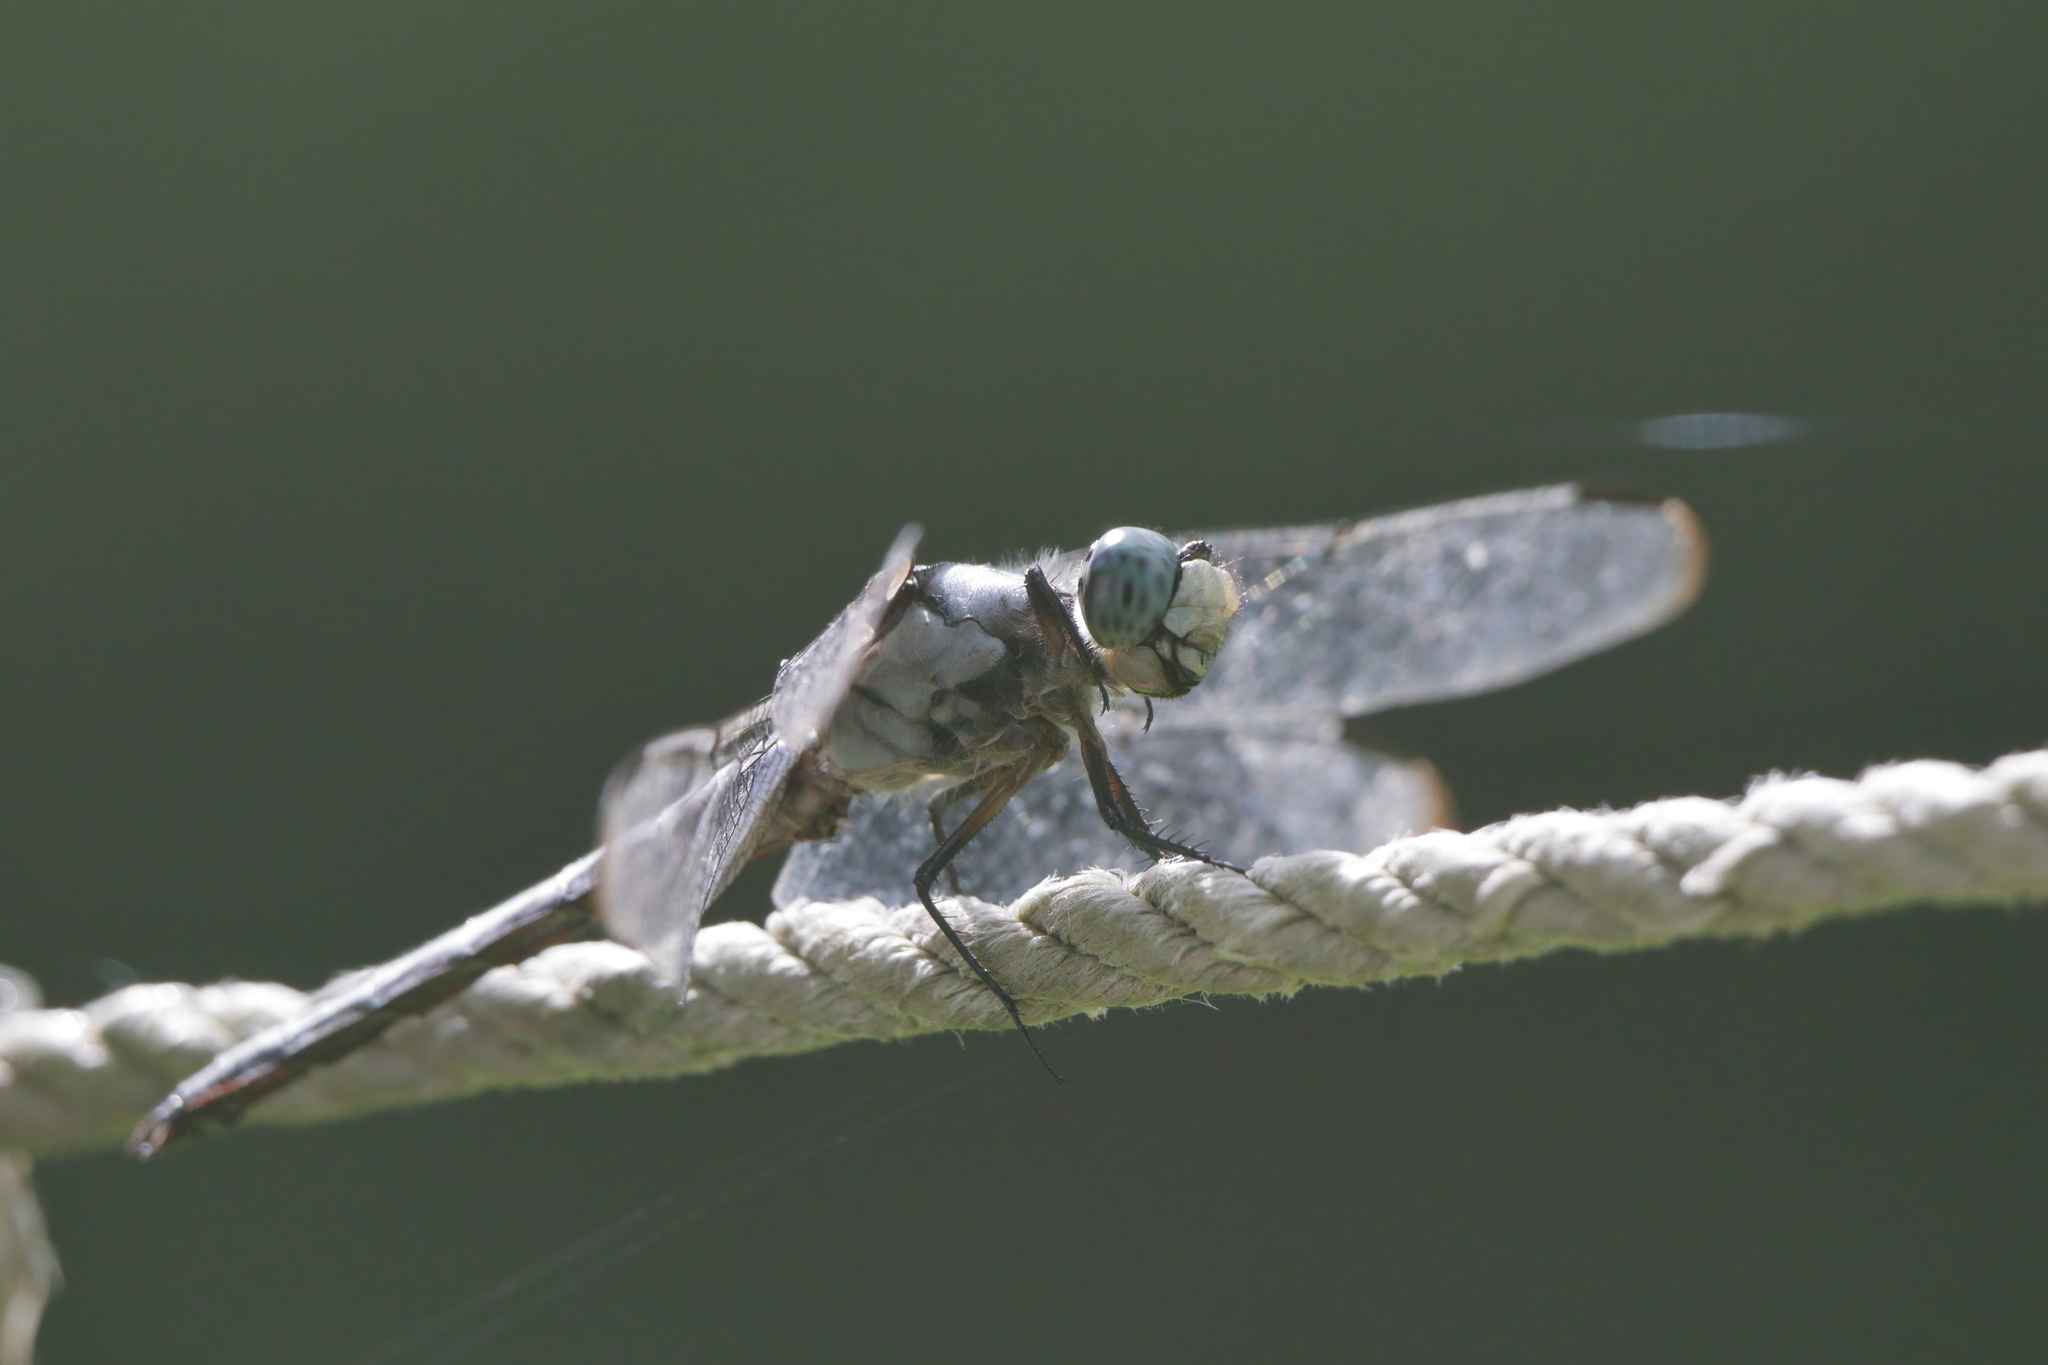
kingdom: Animalia
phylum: Arthropoda
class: Insecta
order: Odonata
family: Libellulidae
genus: Libellula
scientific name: Libellula vibrans
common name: Great blue skimmer
